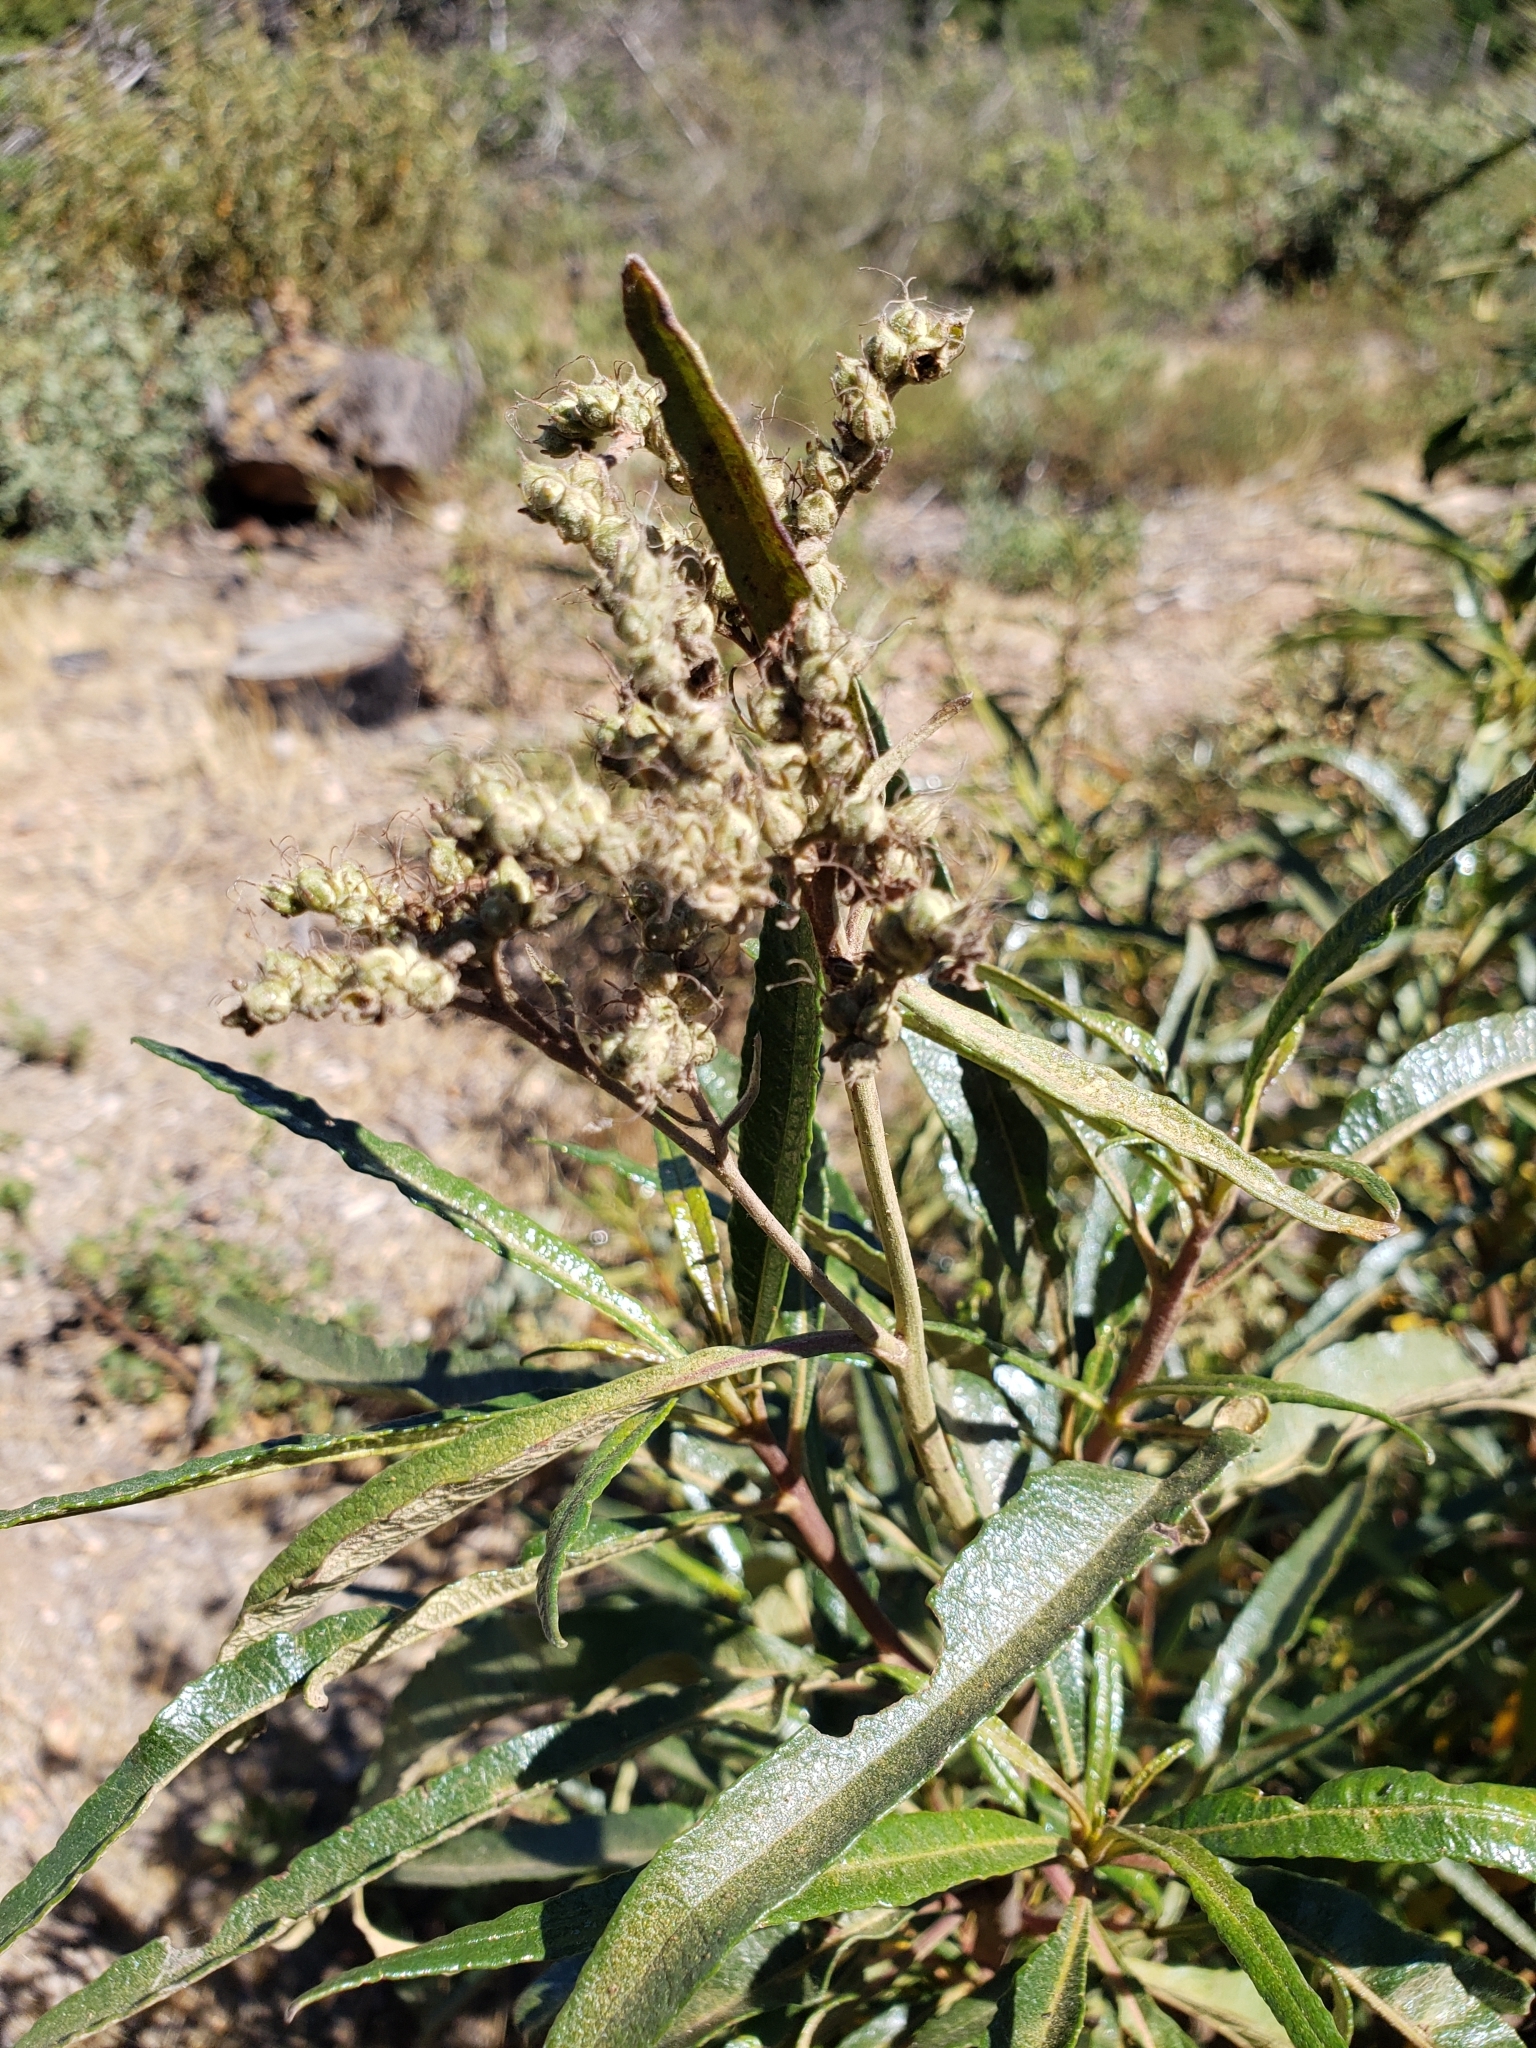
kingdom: Plantae
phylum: Tracheophyta
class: Magnoliopsida
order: Boraginales
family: Namaceae
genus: Eriodictyon
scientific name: Eriodictyon californicum
